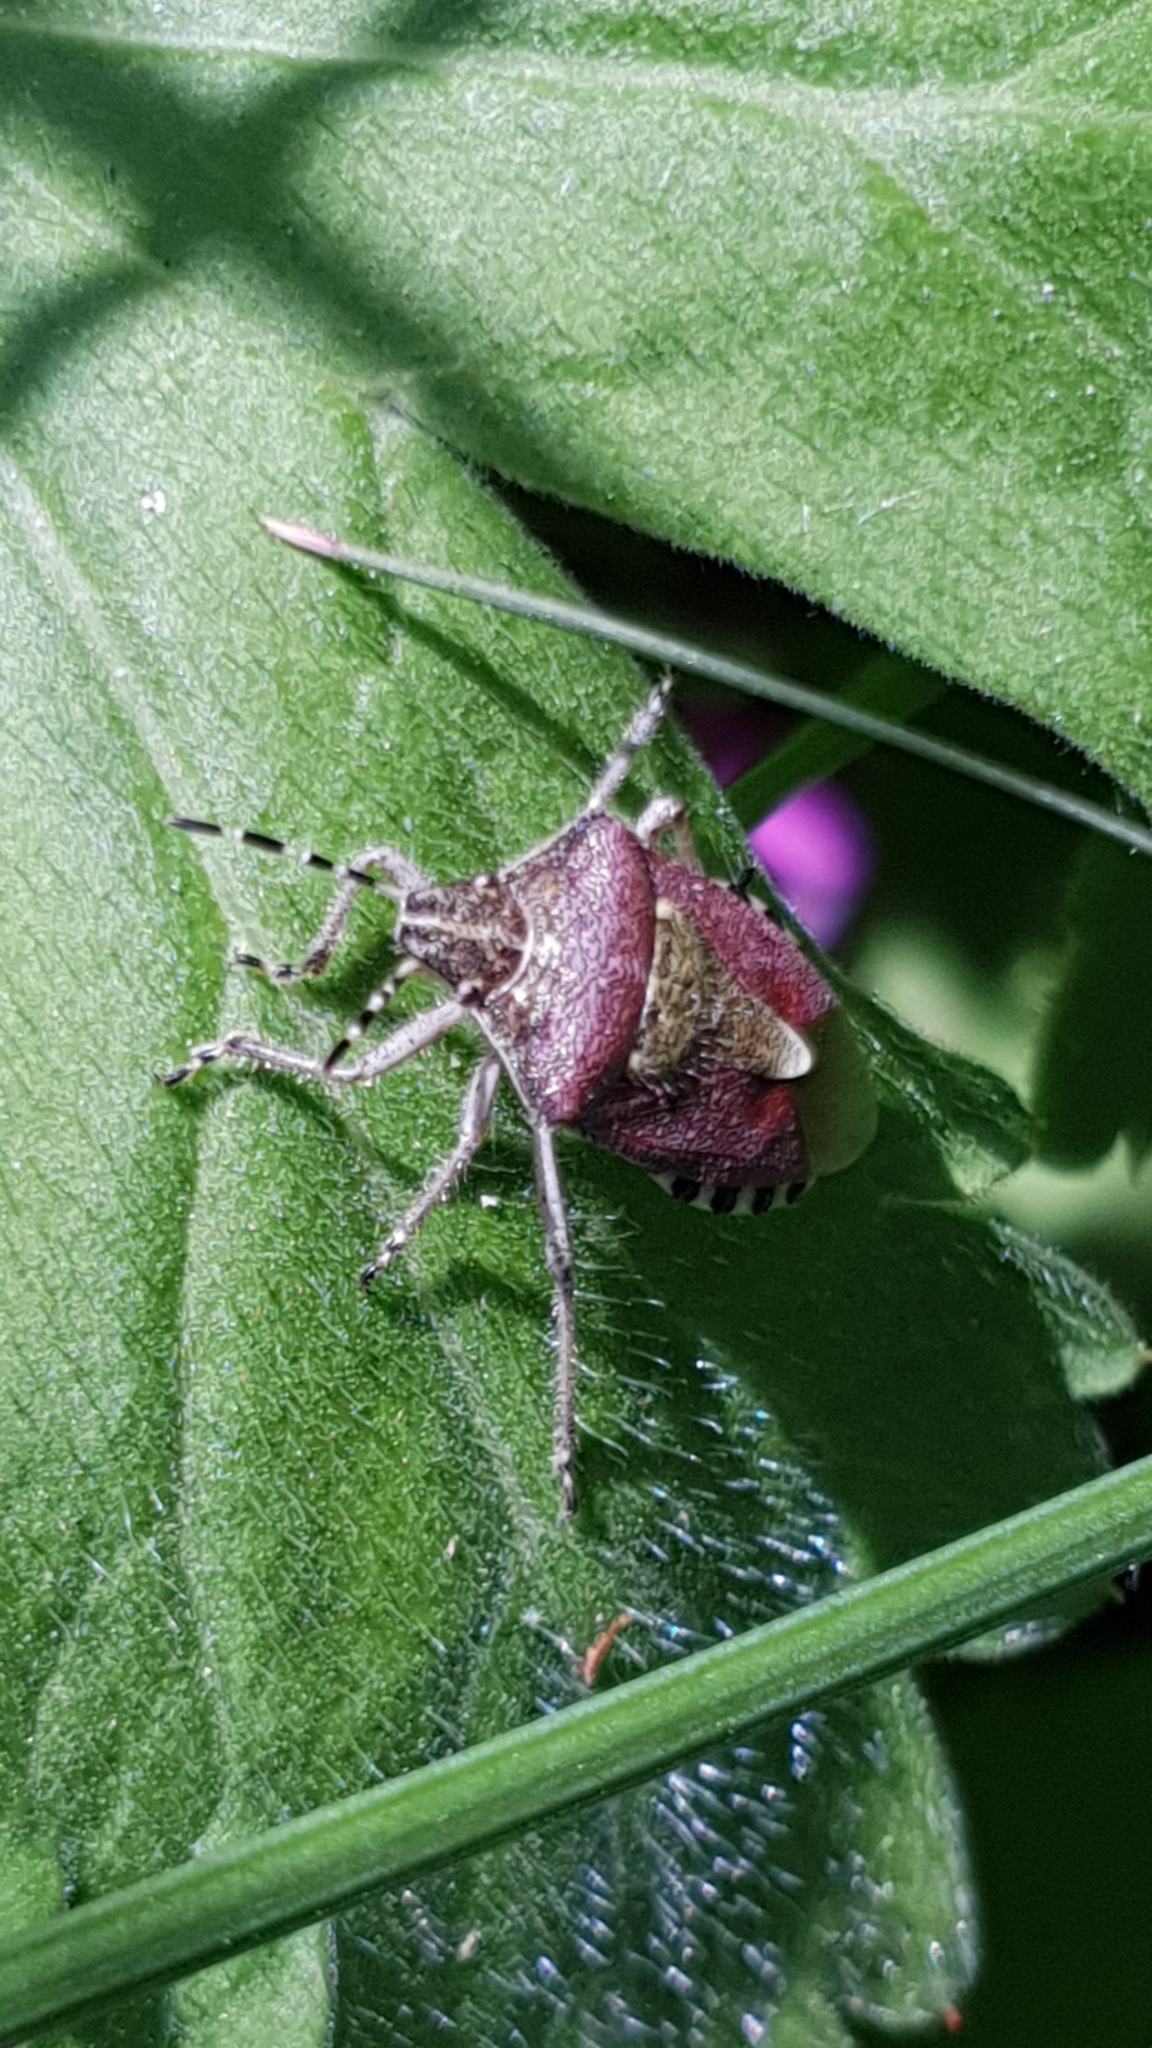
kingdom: Animalia
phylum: Arthropoda
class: Insecta
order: Hemiptera
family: Pentatomidae
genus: Dolycoris
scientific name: Dolycoris baccarum
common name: Sloe bug
